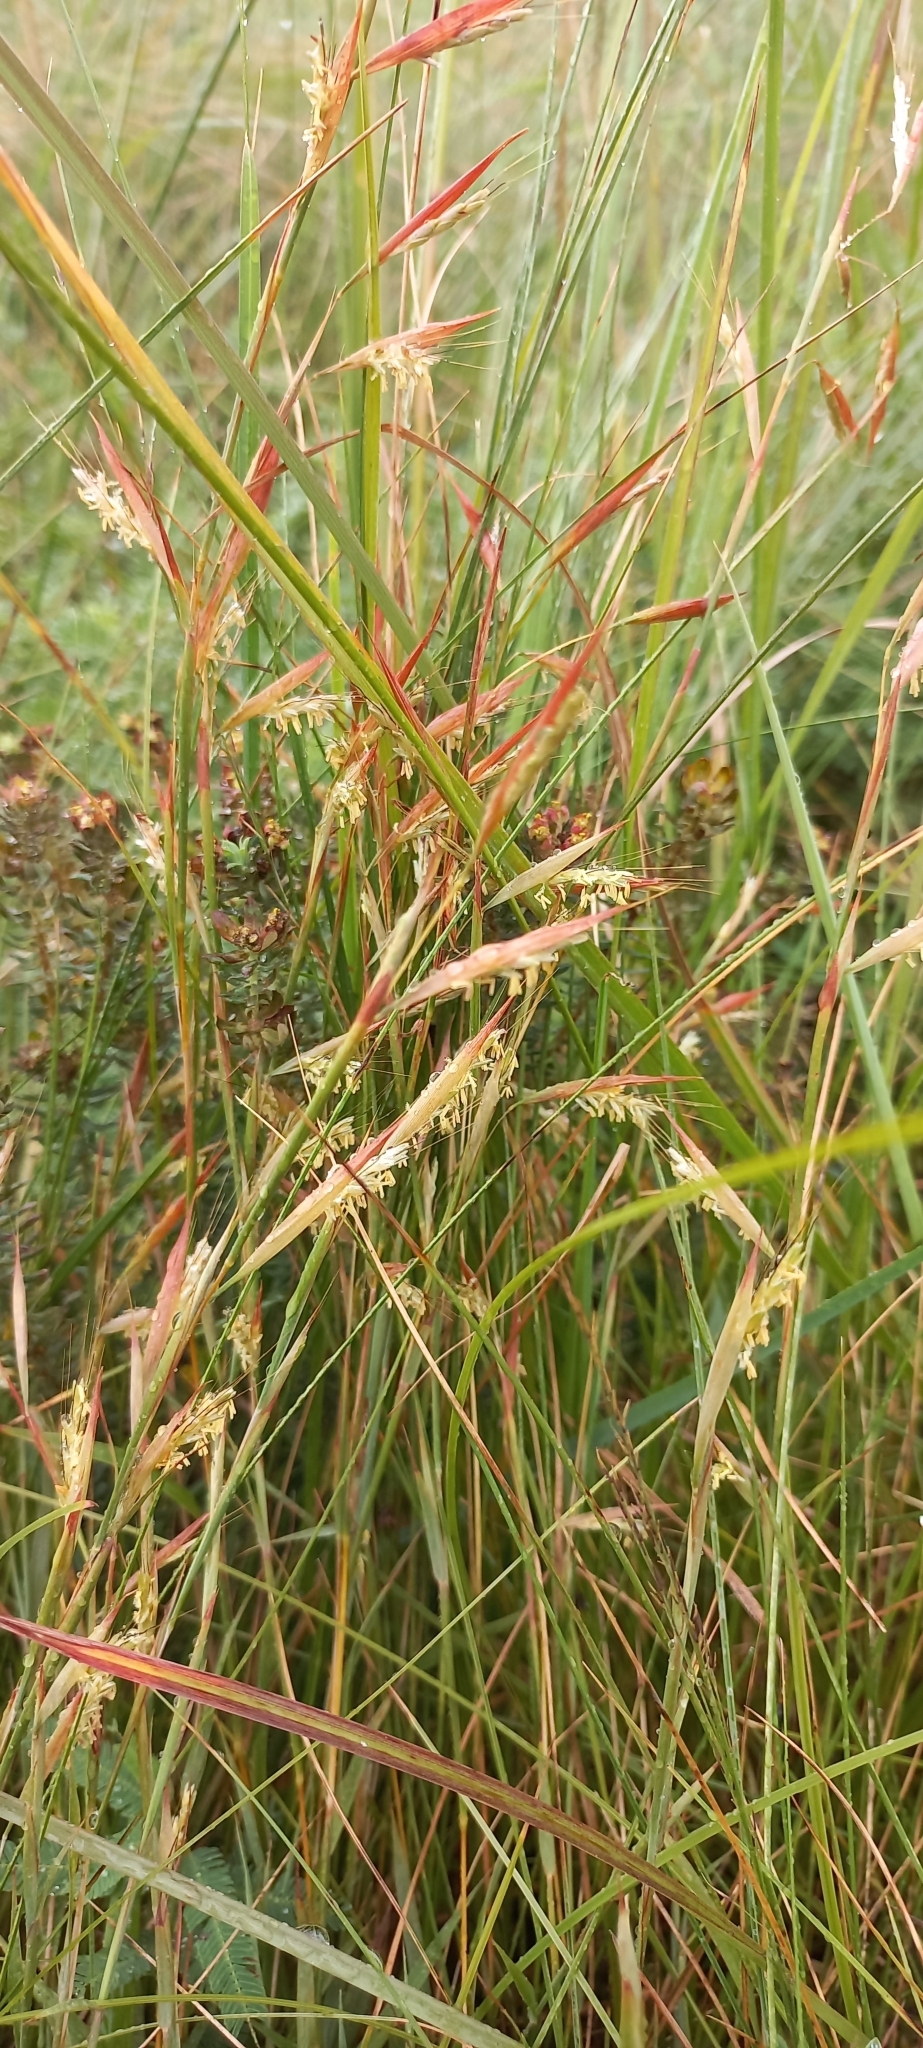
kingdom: Plantae
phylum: Tracheophyta
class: Liliopsida
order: Poales
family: Poaceae
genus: Monocymbium
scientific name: Monocymbium ceresiiforme
